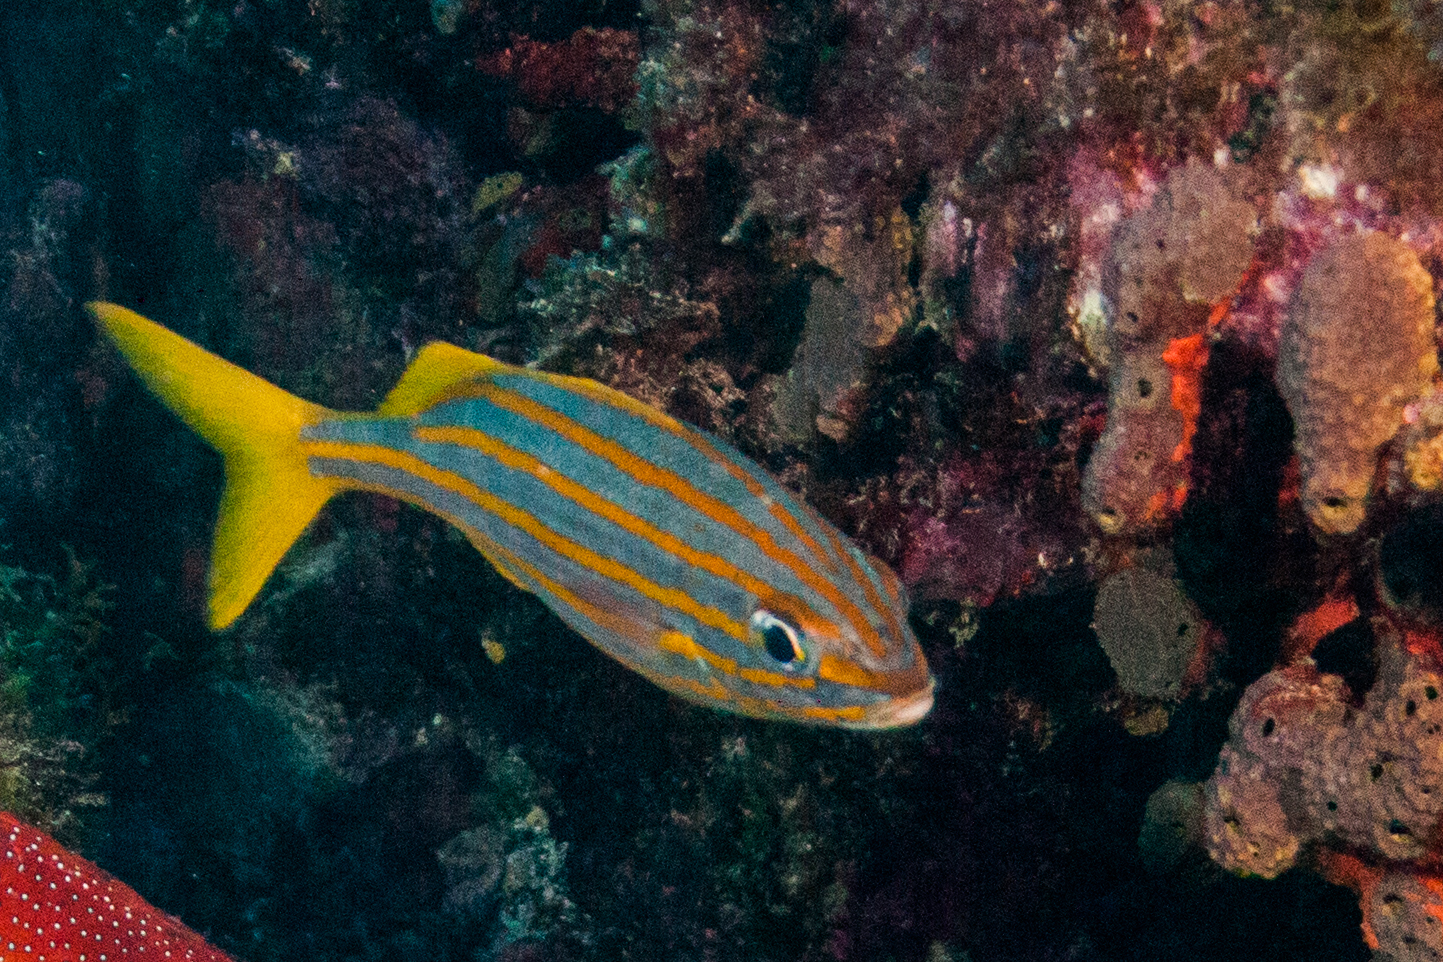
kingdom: Animalia
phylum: Chordata
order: Perciformes
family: Haemulidae
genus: Haemulon
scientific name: Haemulon chrysargyreum
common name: Smallmouth grunt
